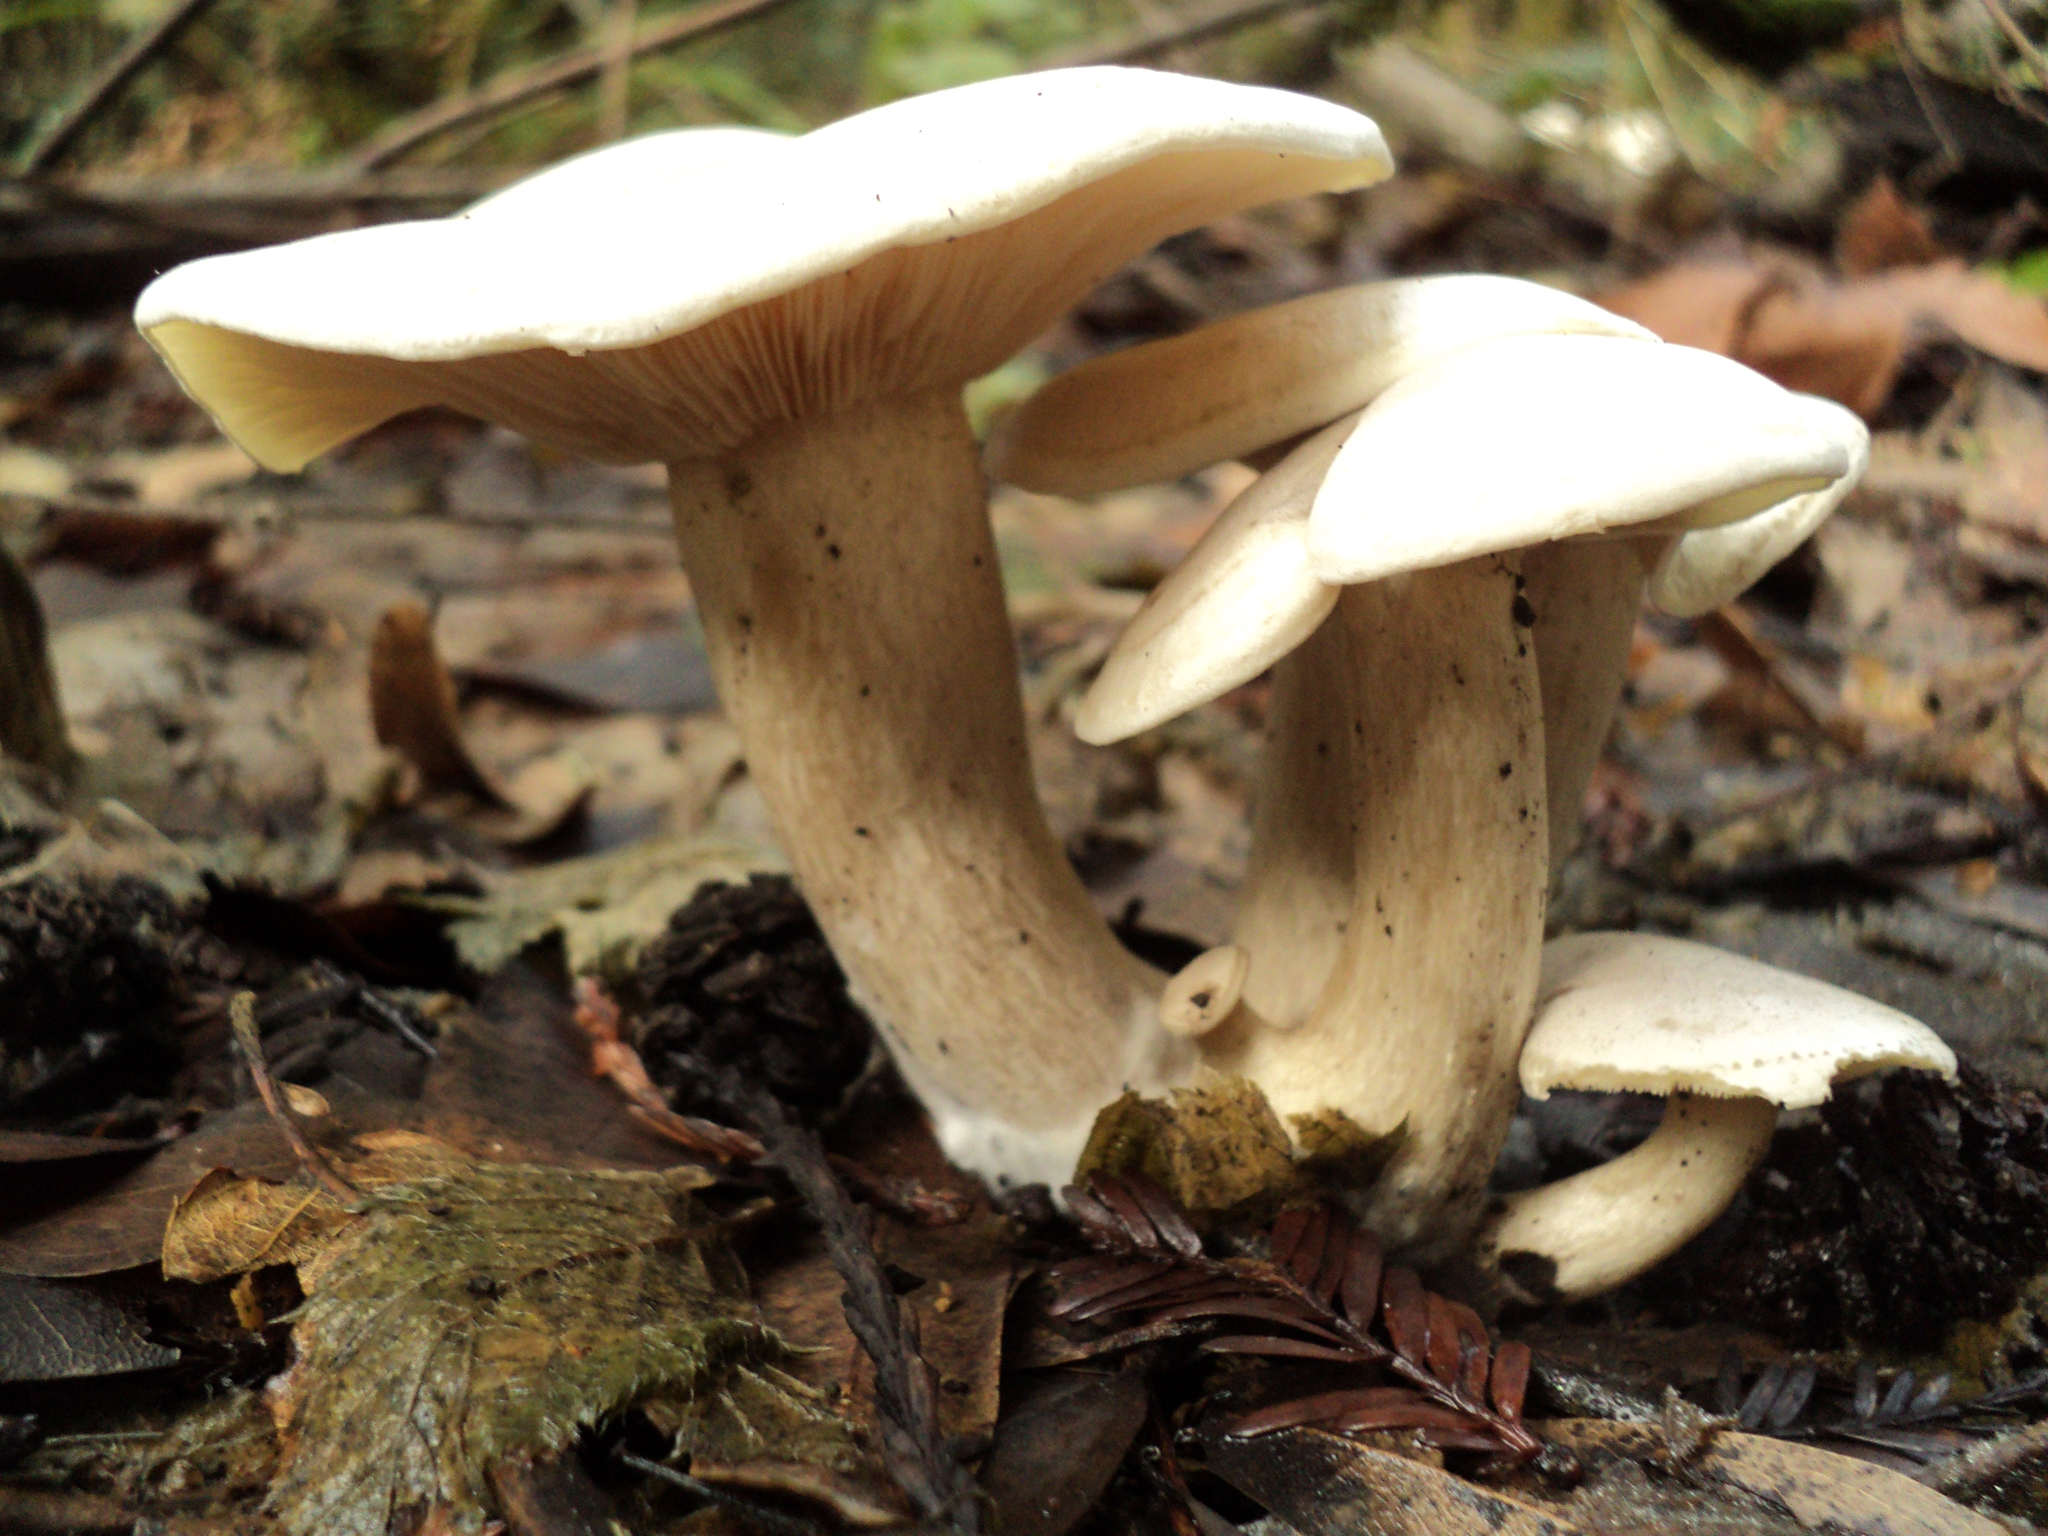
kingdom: Fungi
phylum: Basidiomycota
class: Agaricomycetes
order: Agaricales
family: Tricholomataceae
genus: Lepista
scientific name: Lepista subconnexa
